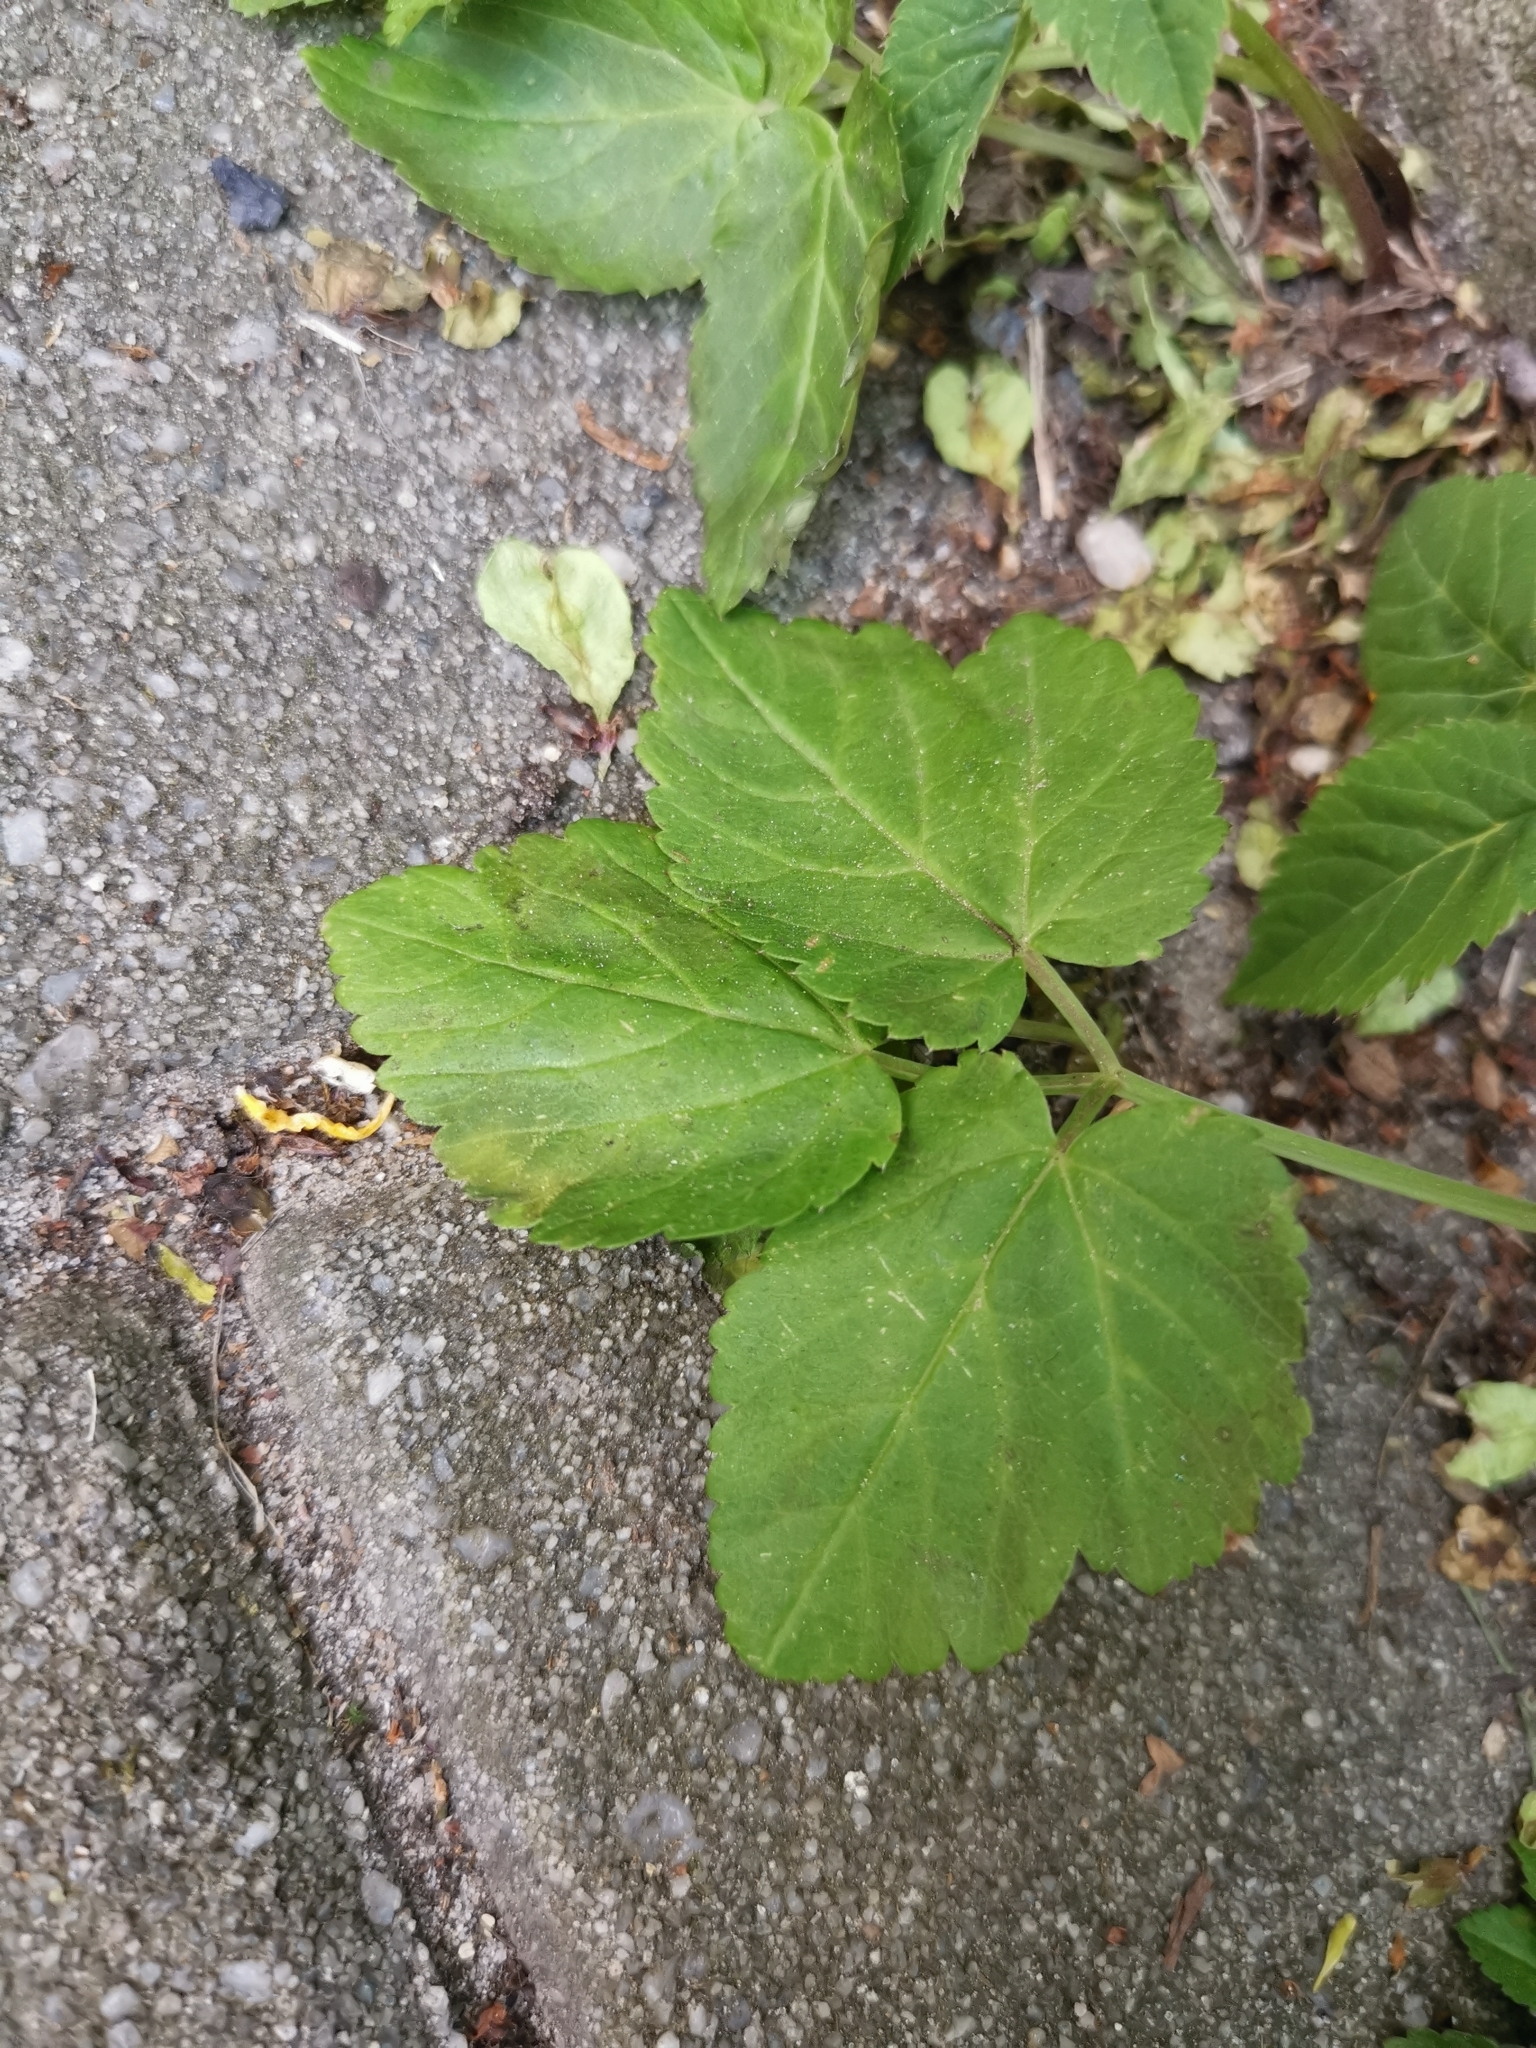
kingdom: Plantae
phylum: Tracheophyta
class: Magnoliopsida
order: Apiales
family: Apiaceae
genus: Aegopodium
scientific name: Aegopodium podagraria
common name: Ground-elder
